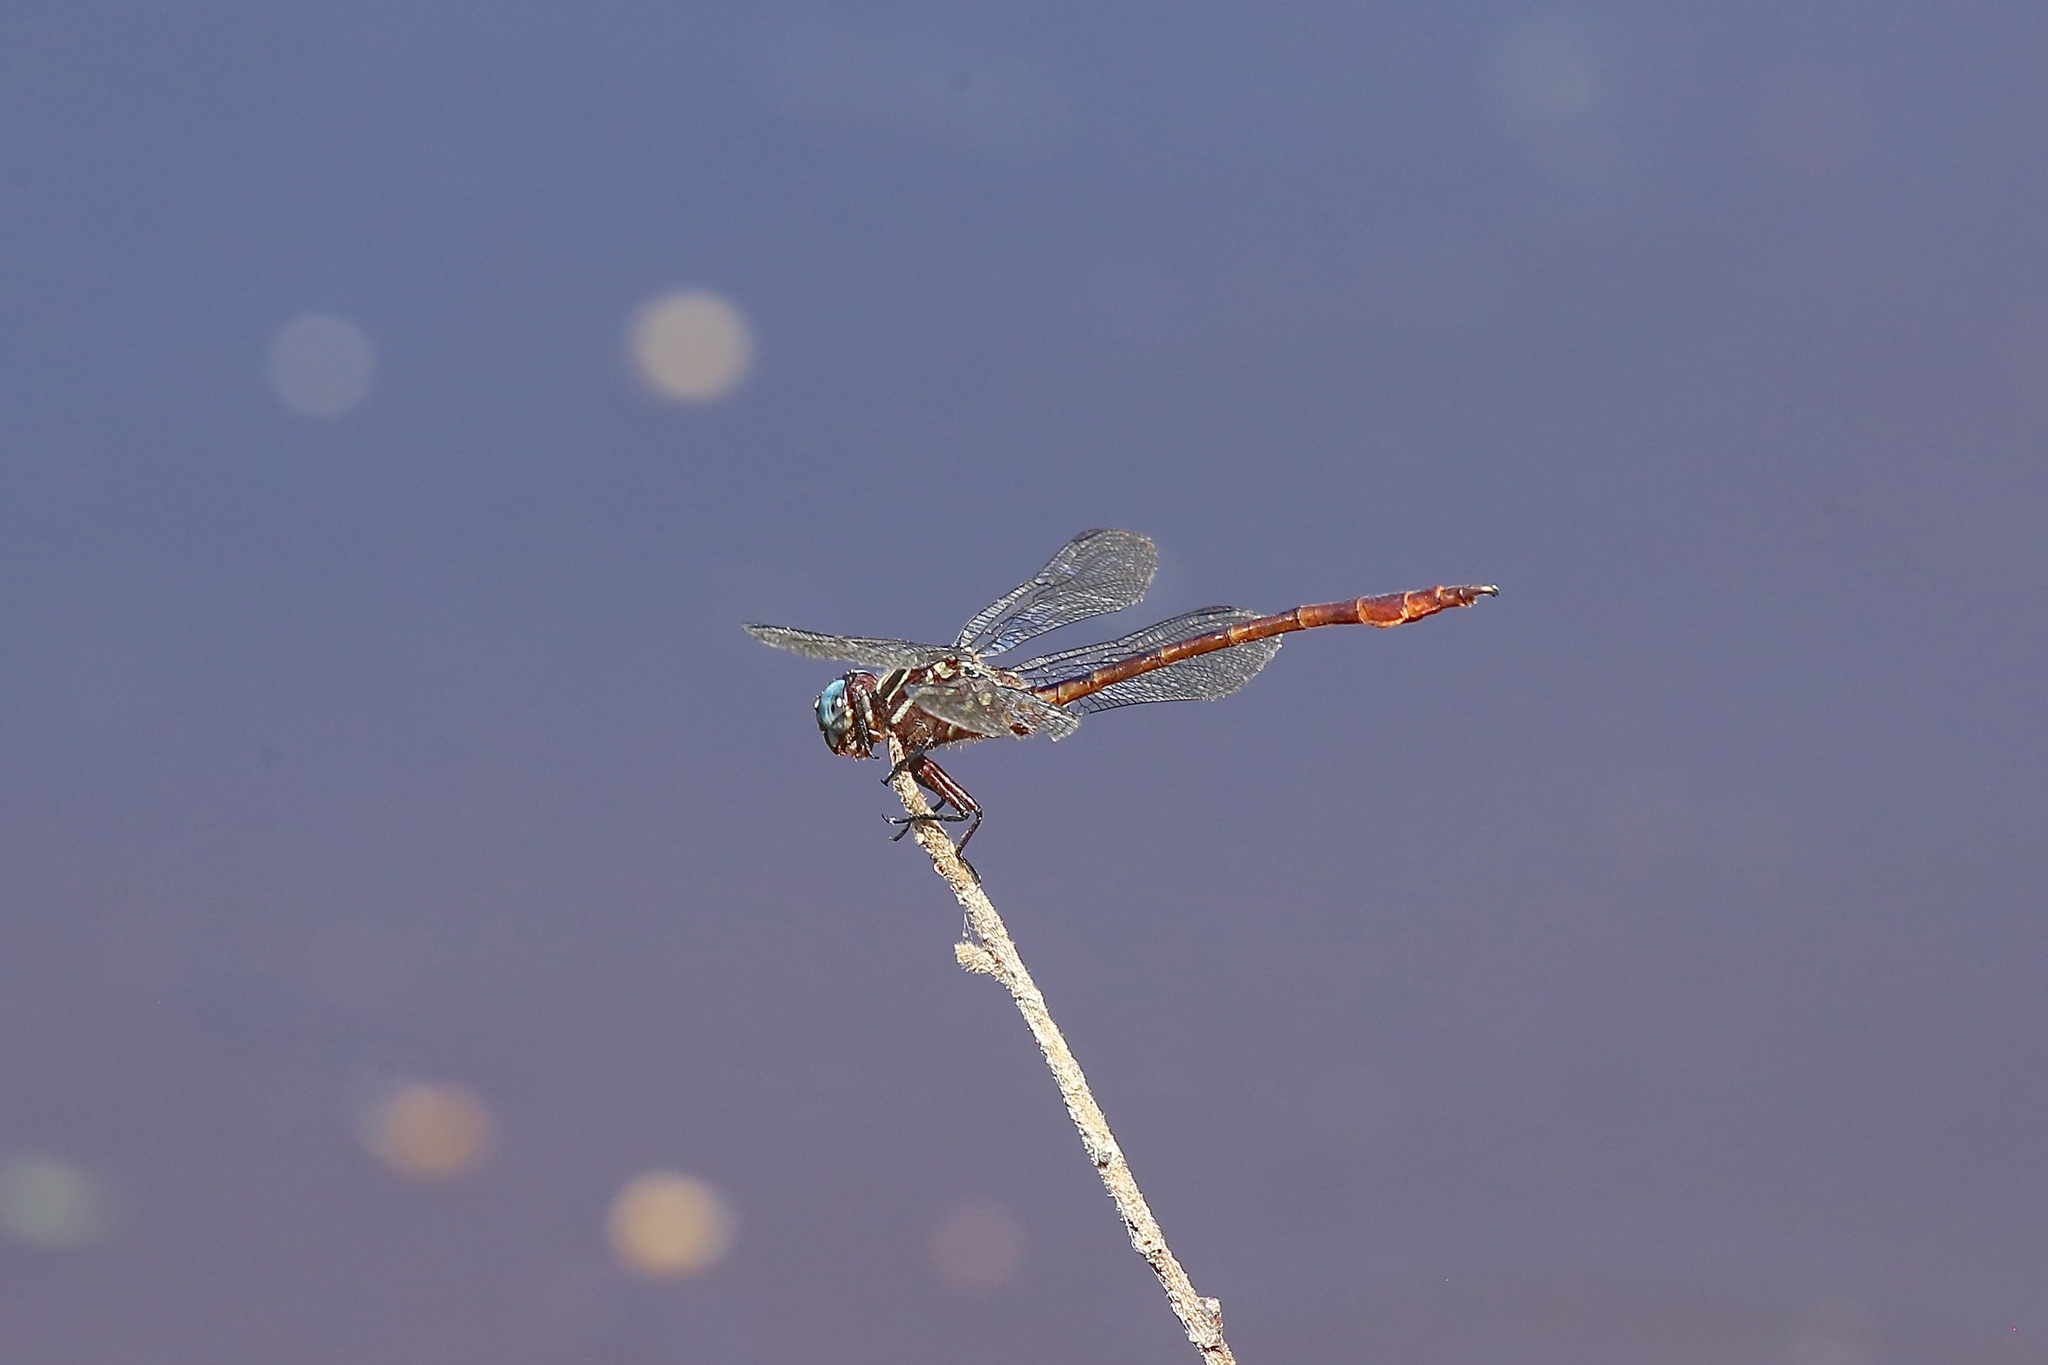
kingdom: Animalia
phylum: Arthropoda
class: Insecta
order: Odonata
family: Gomphidae
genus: Aphylla
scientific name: Aphylla protracta
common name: Narrow-striped forceptail
